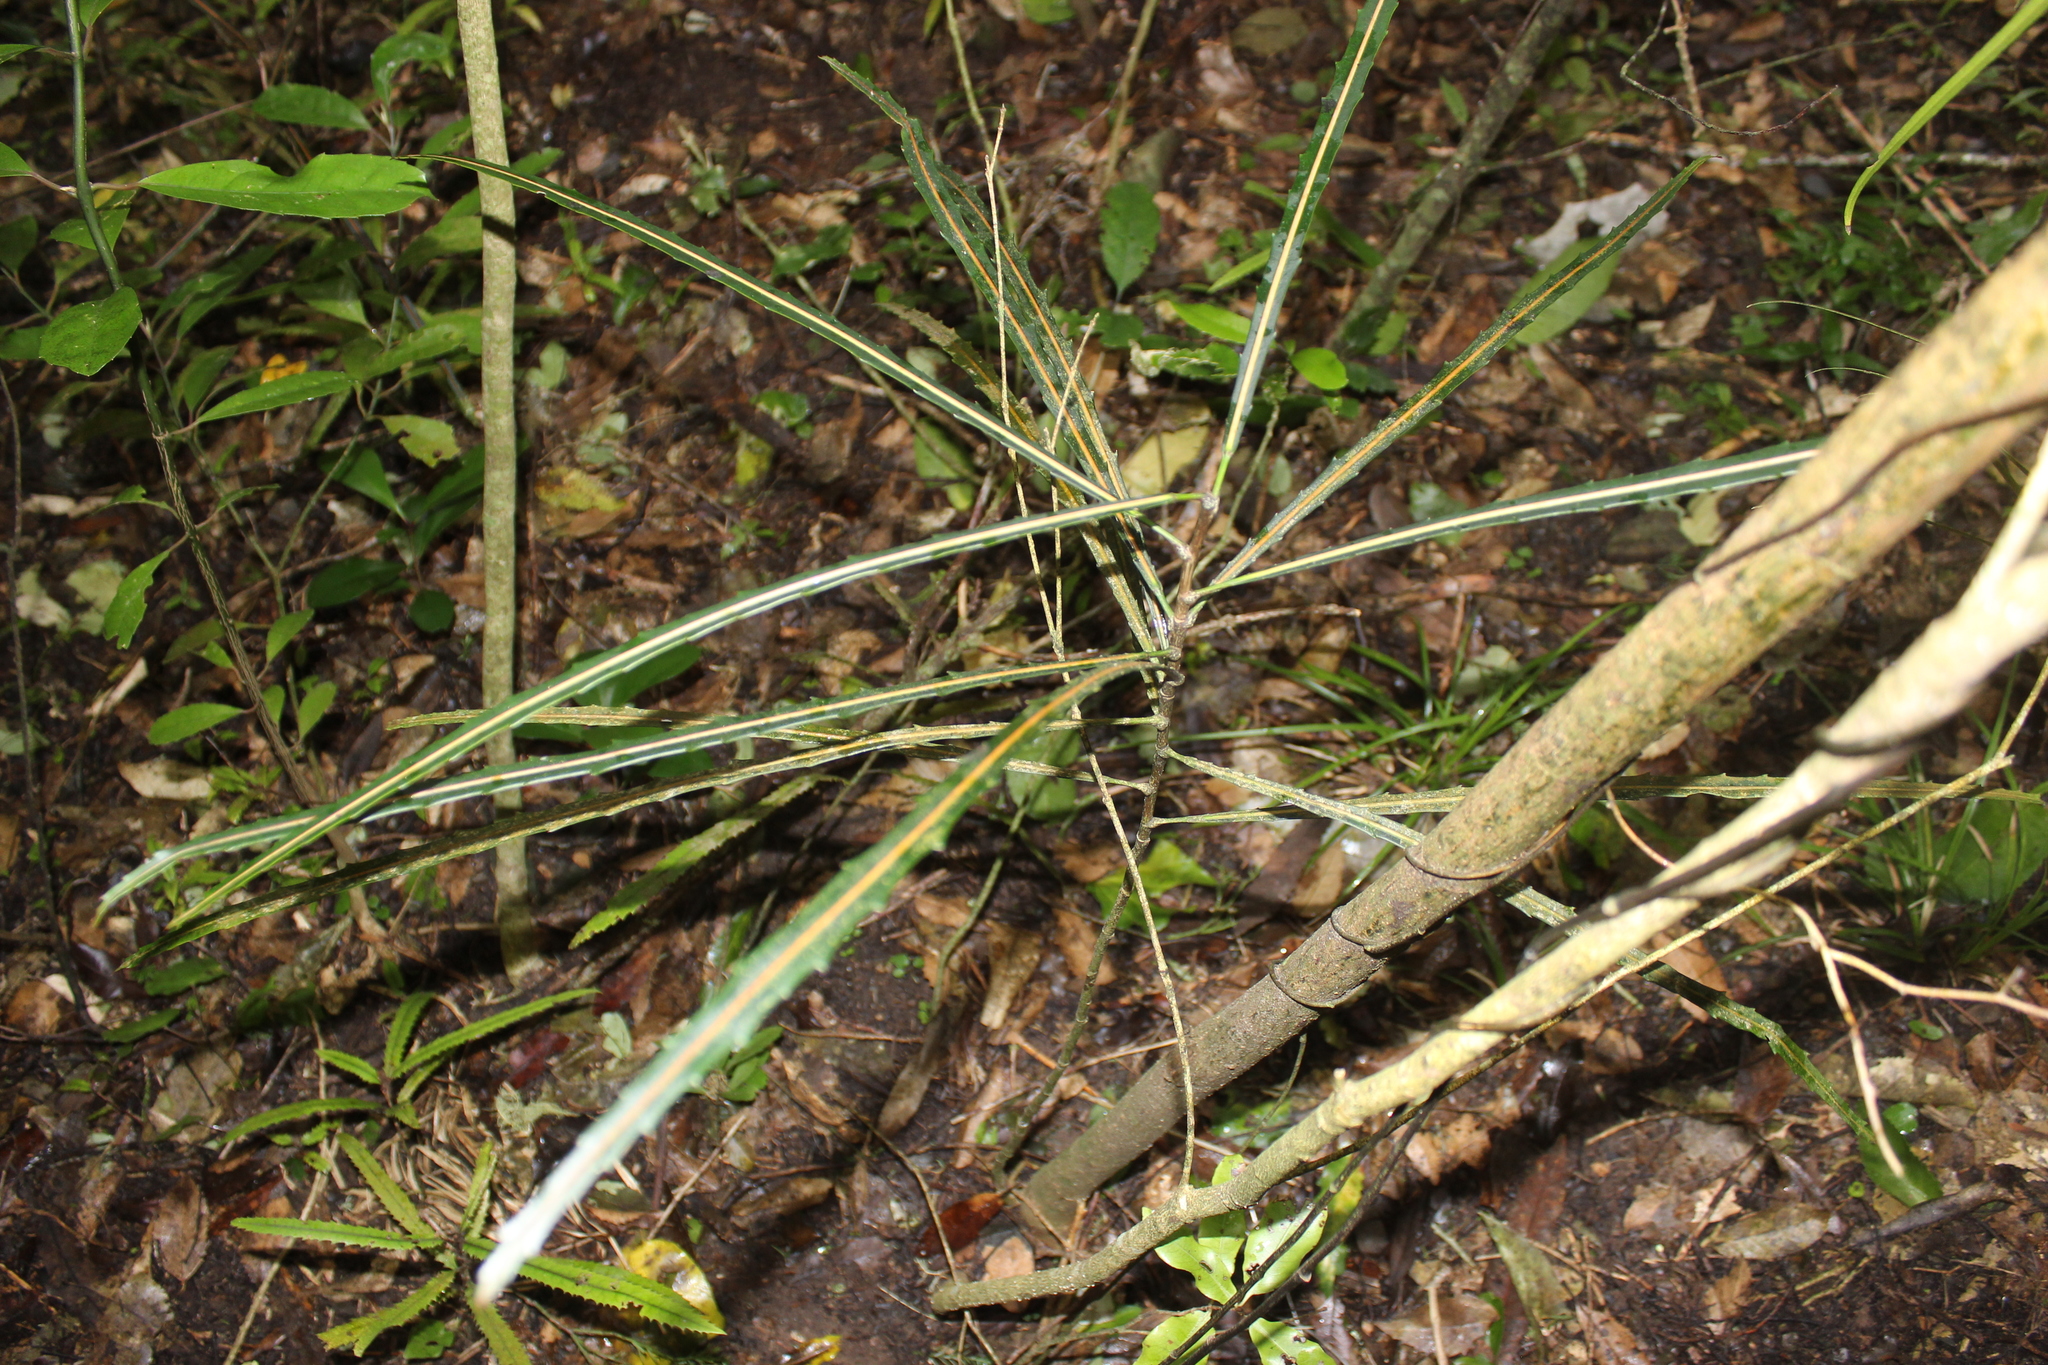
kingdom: Plantae
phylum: Tracheophyta
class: Magnoliopsida
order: Apiales
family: Araliaceae
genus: Pseudopanax
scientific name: Pseudopanax
